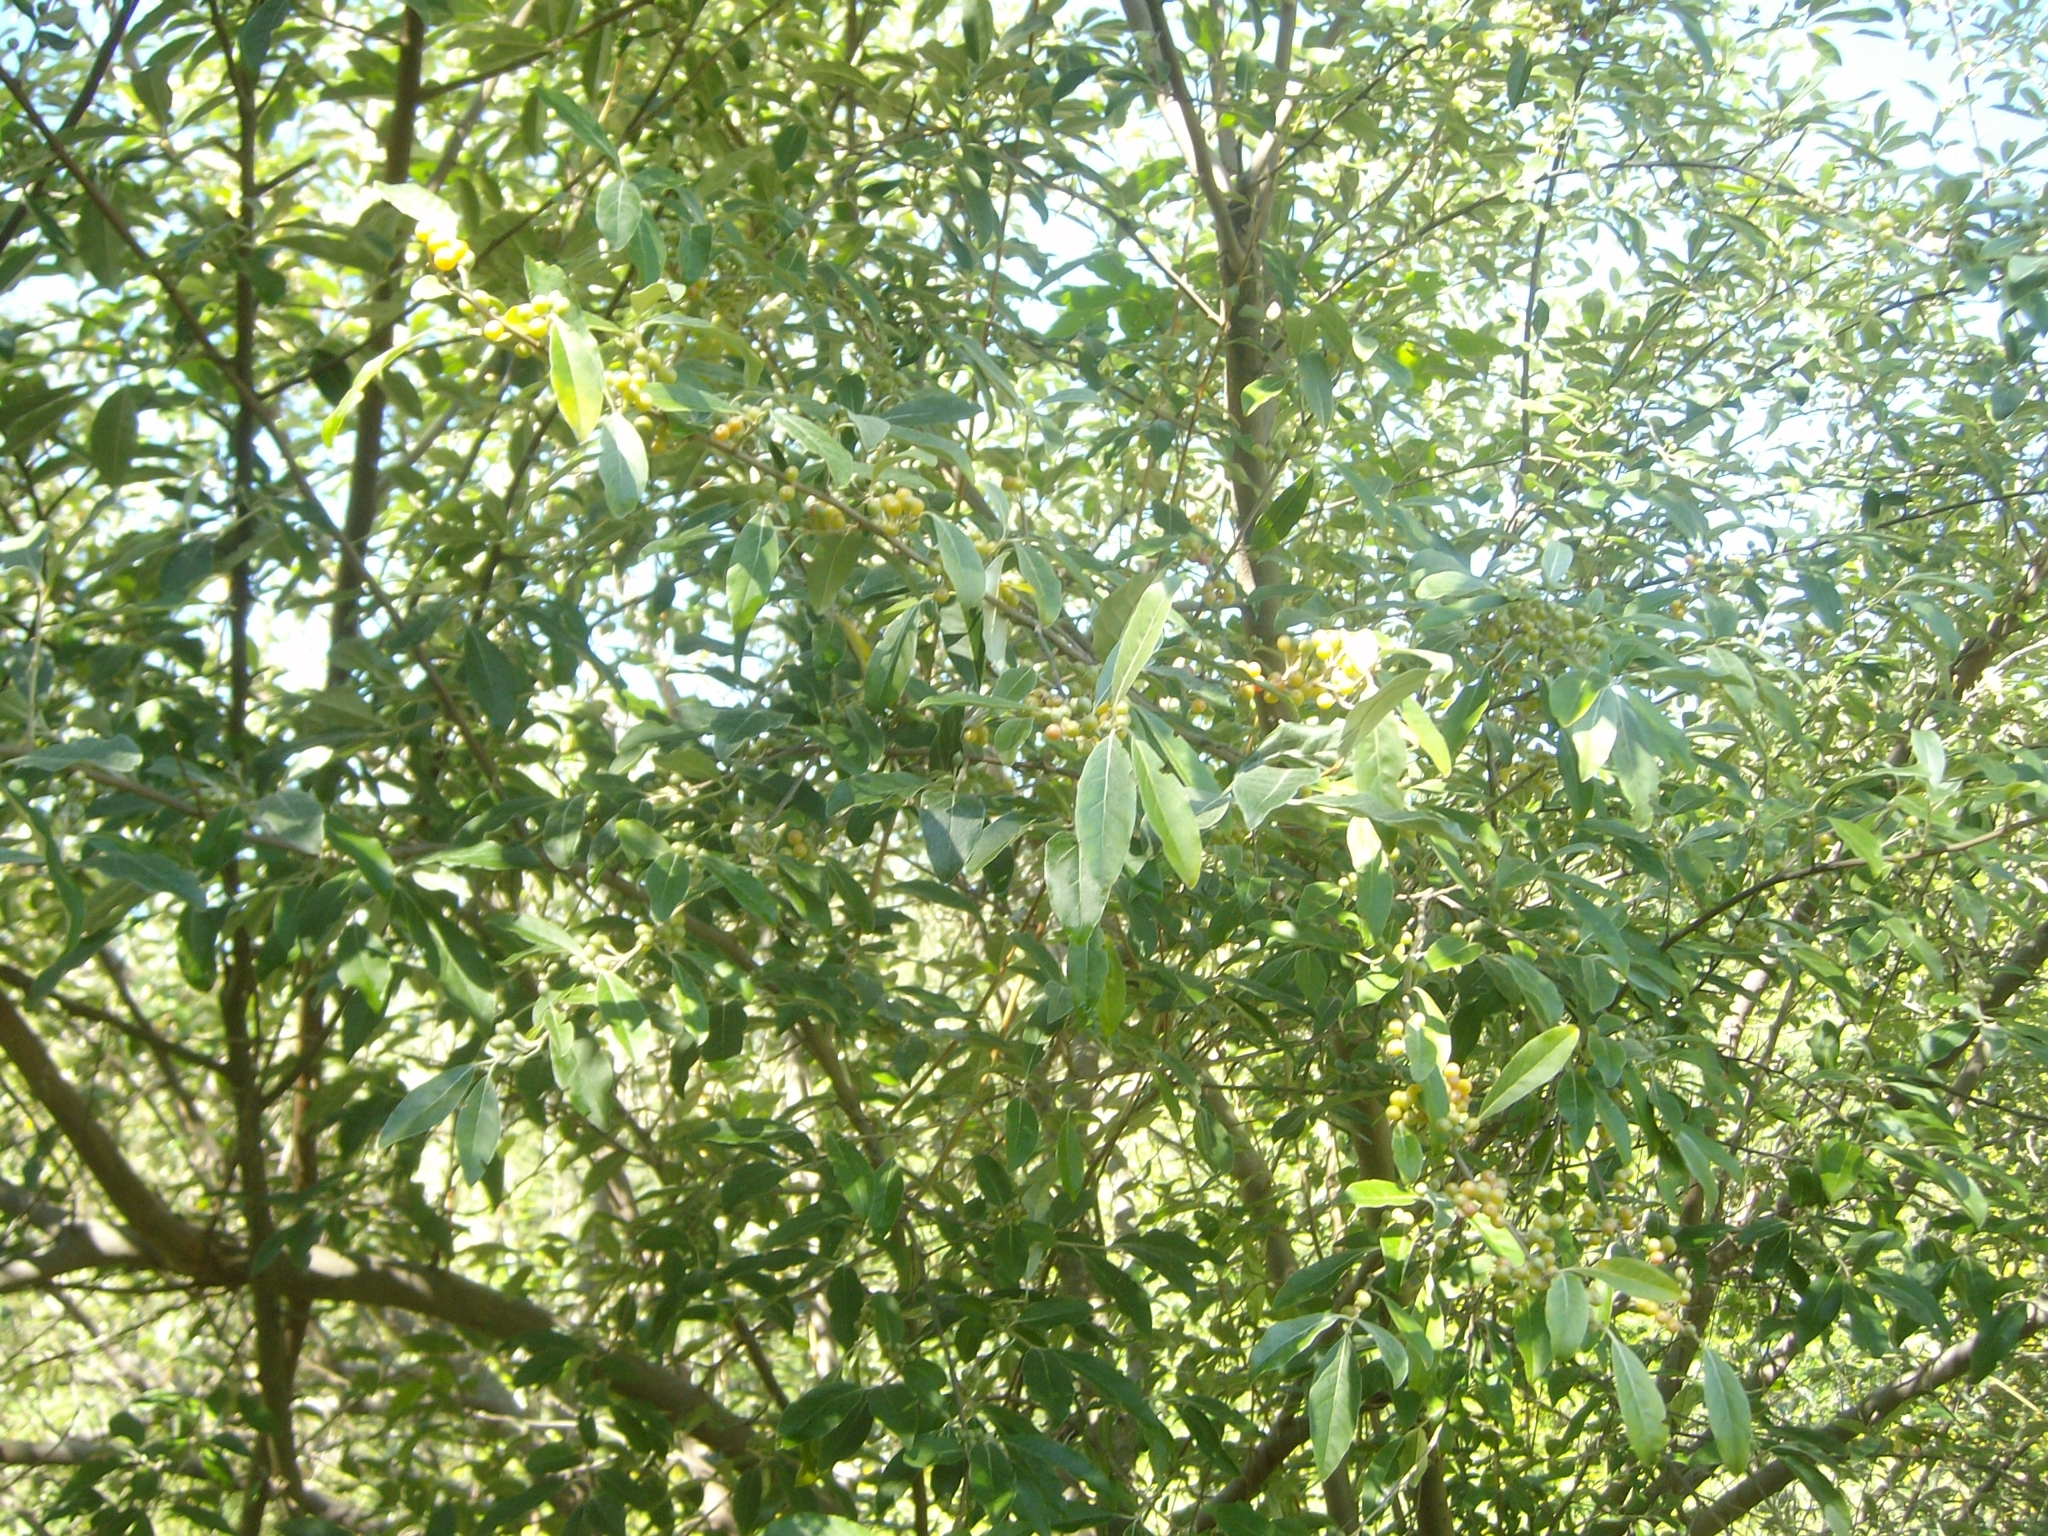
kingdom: Plantae
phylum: Tracheophyta
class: Magnoliopsida
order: Rosales
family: Elaeagnaceae
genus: Elaeagnus
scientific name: Elaeagnus umbellata
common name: Autumn olive
